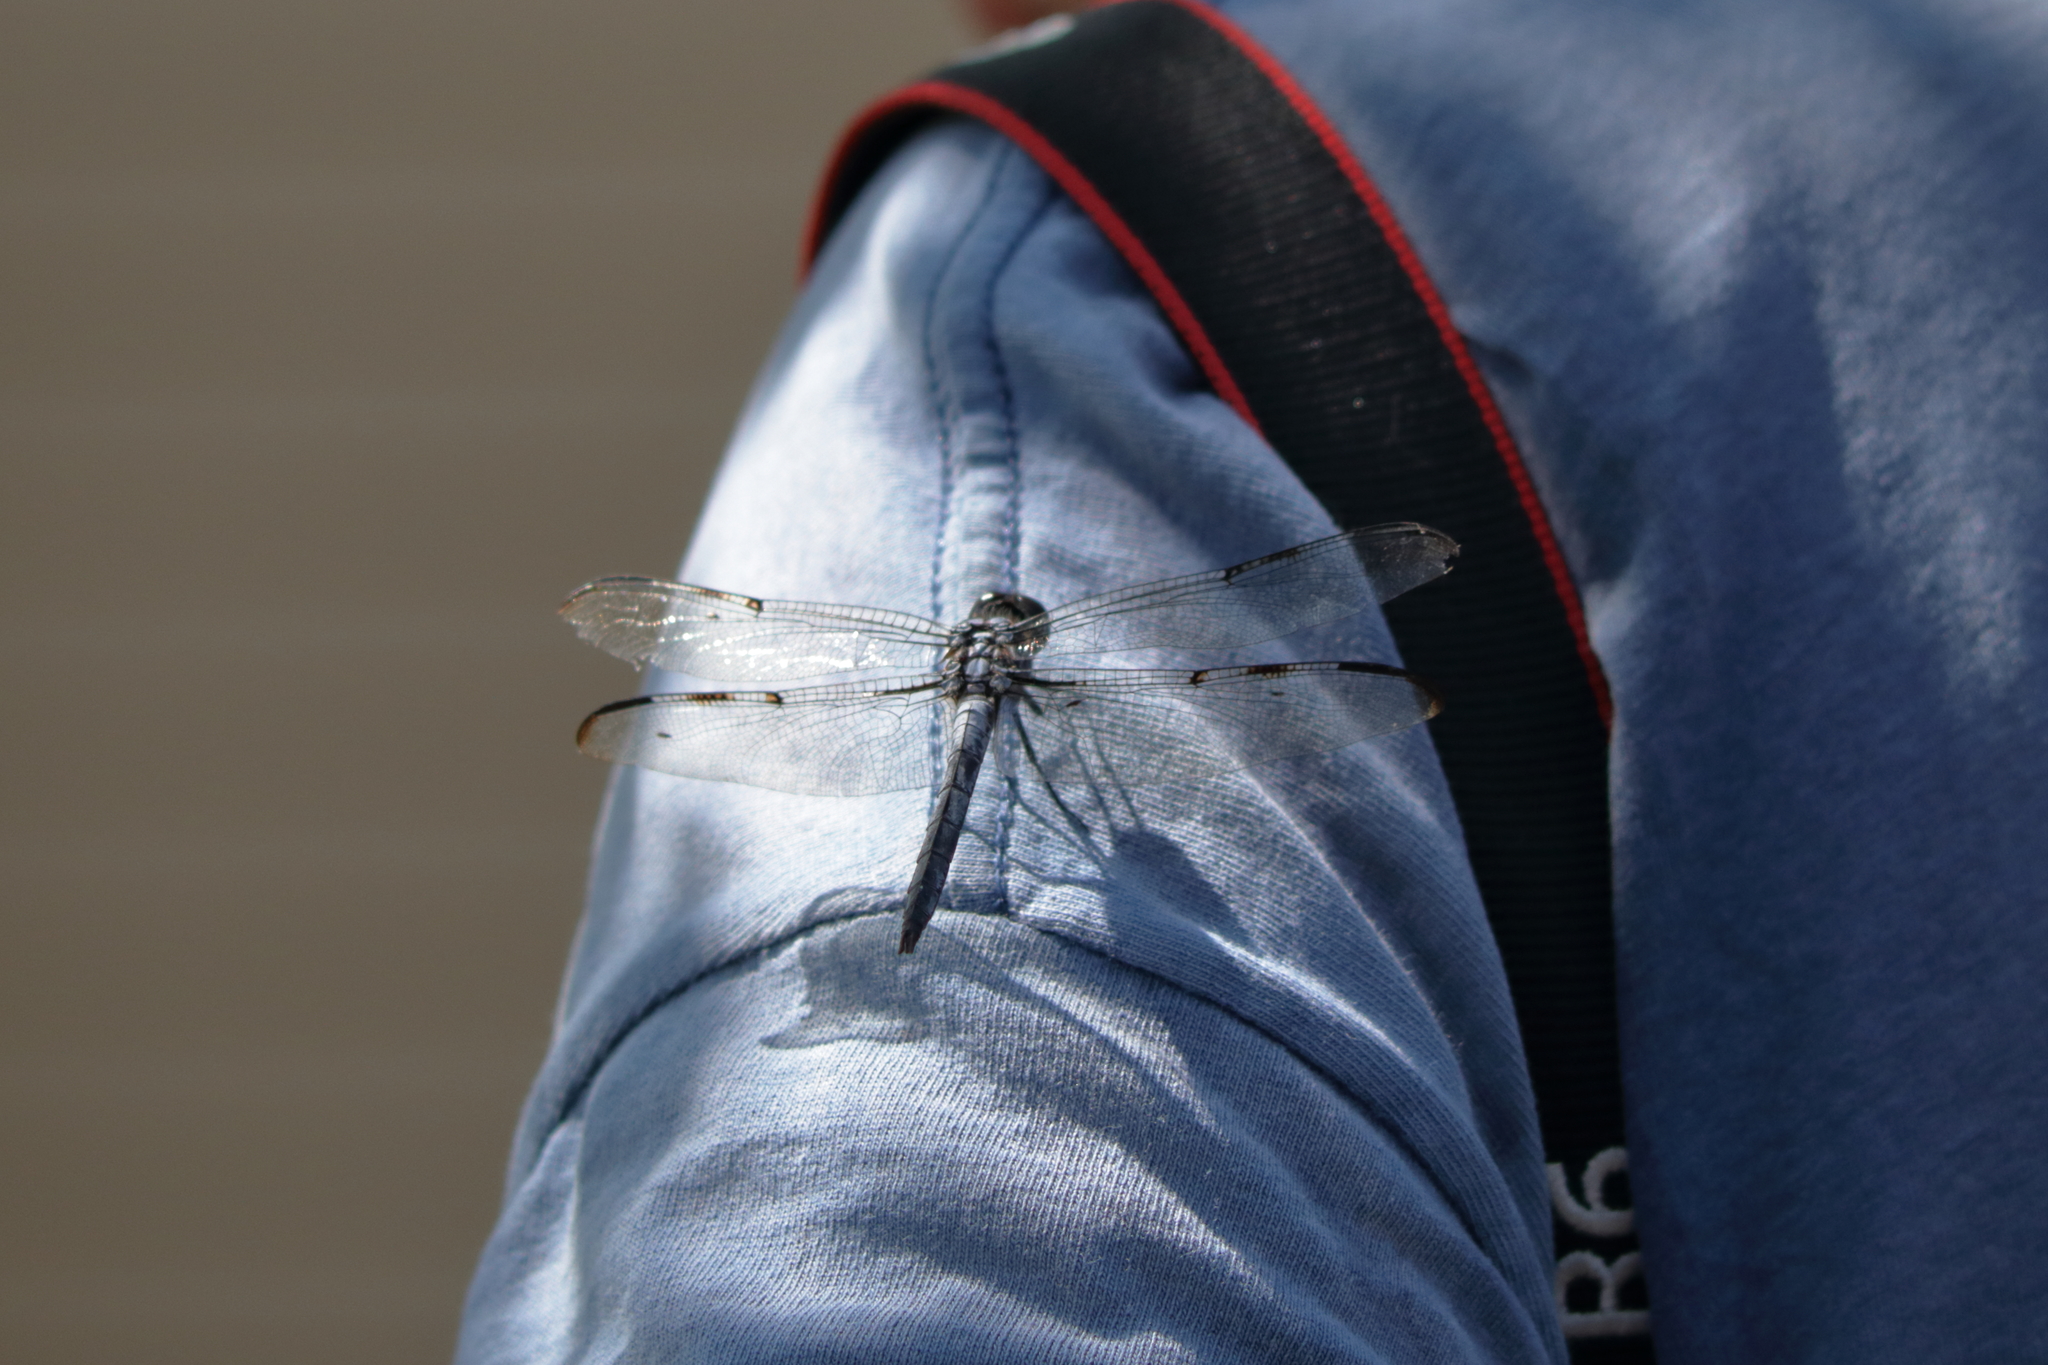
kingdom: Animalia
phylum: Arthropoda
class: Insecta
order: Odonata
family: Libellulidae
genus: Libellula
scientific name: Libellula axilena
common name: Bar-winged skimmer
